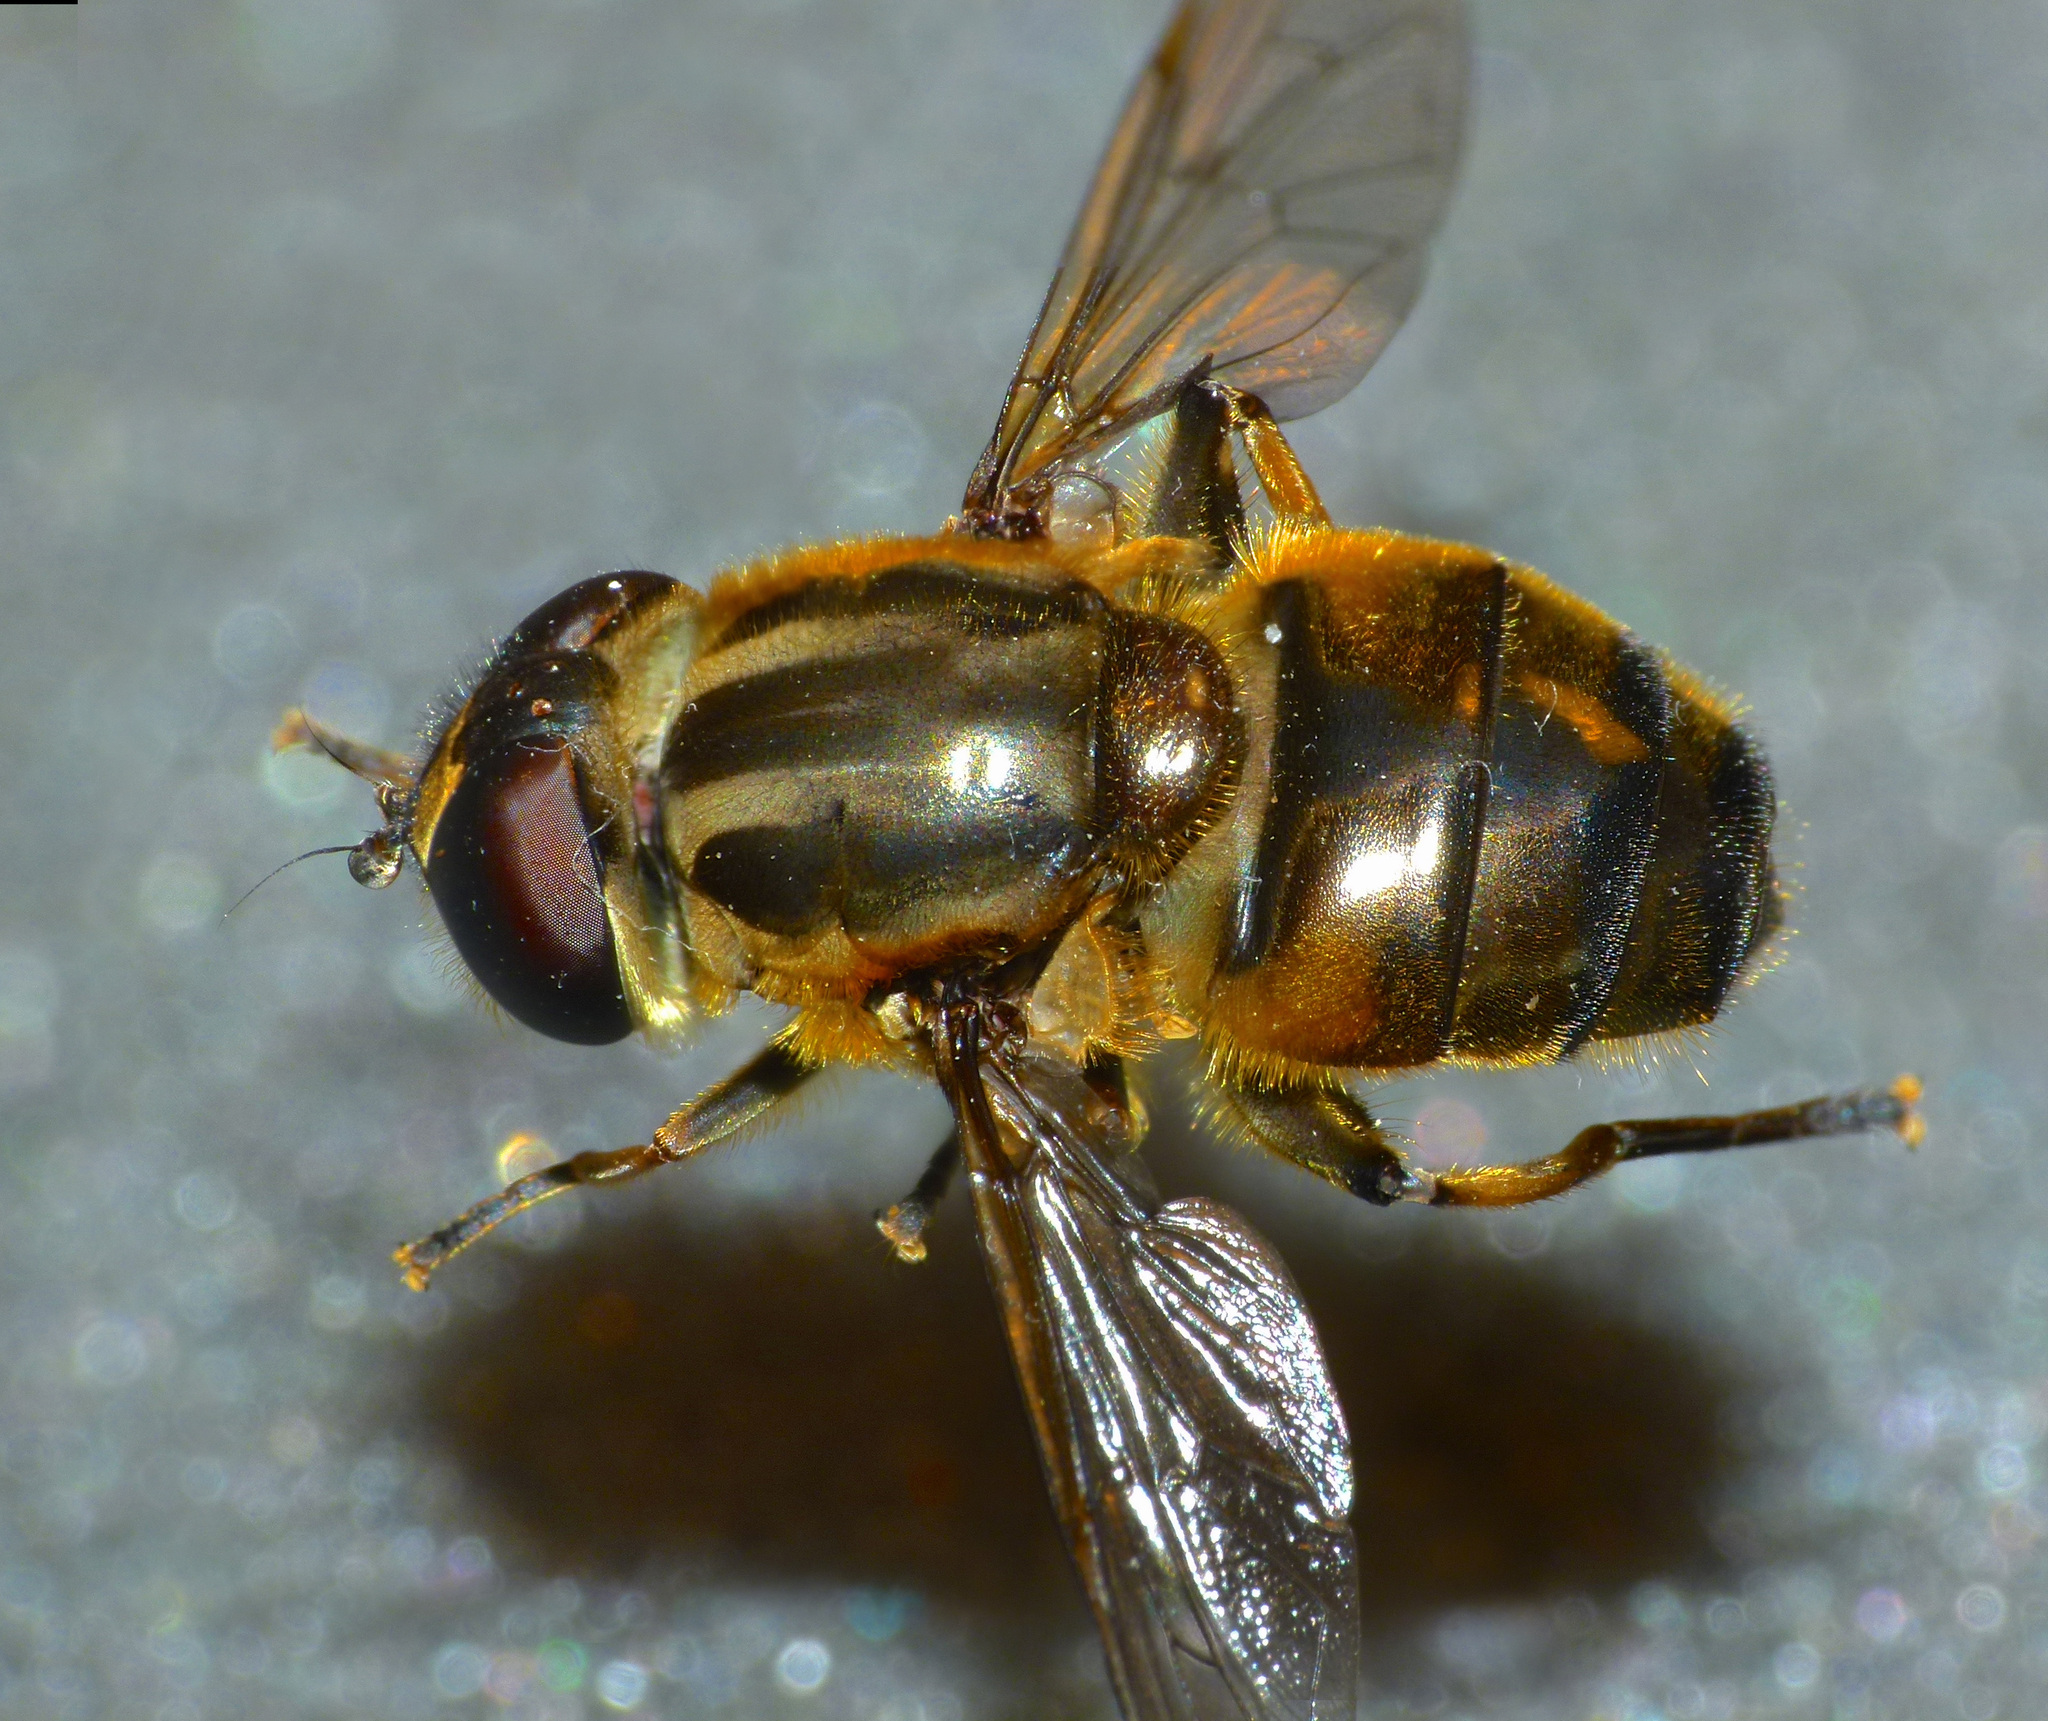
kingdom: Animalia
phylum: Arthropoda
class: Insecta
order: Diptera
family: Syrphidae
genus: Helophilus
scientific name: Helophilus ineptus
